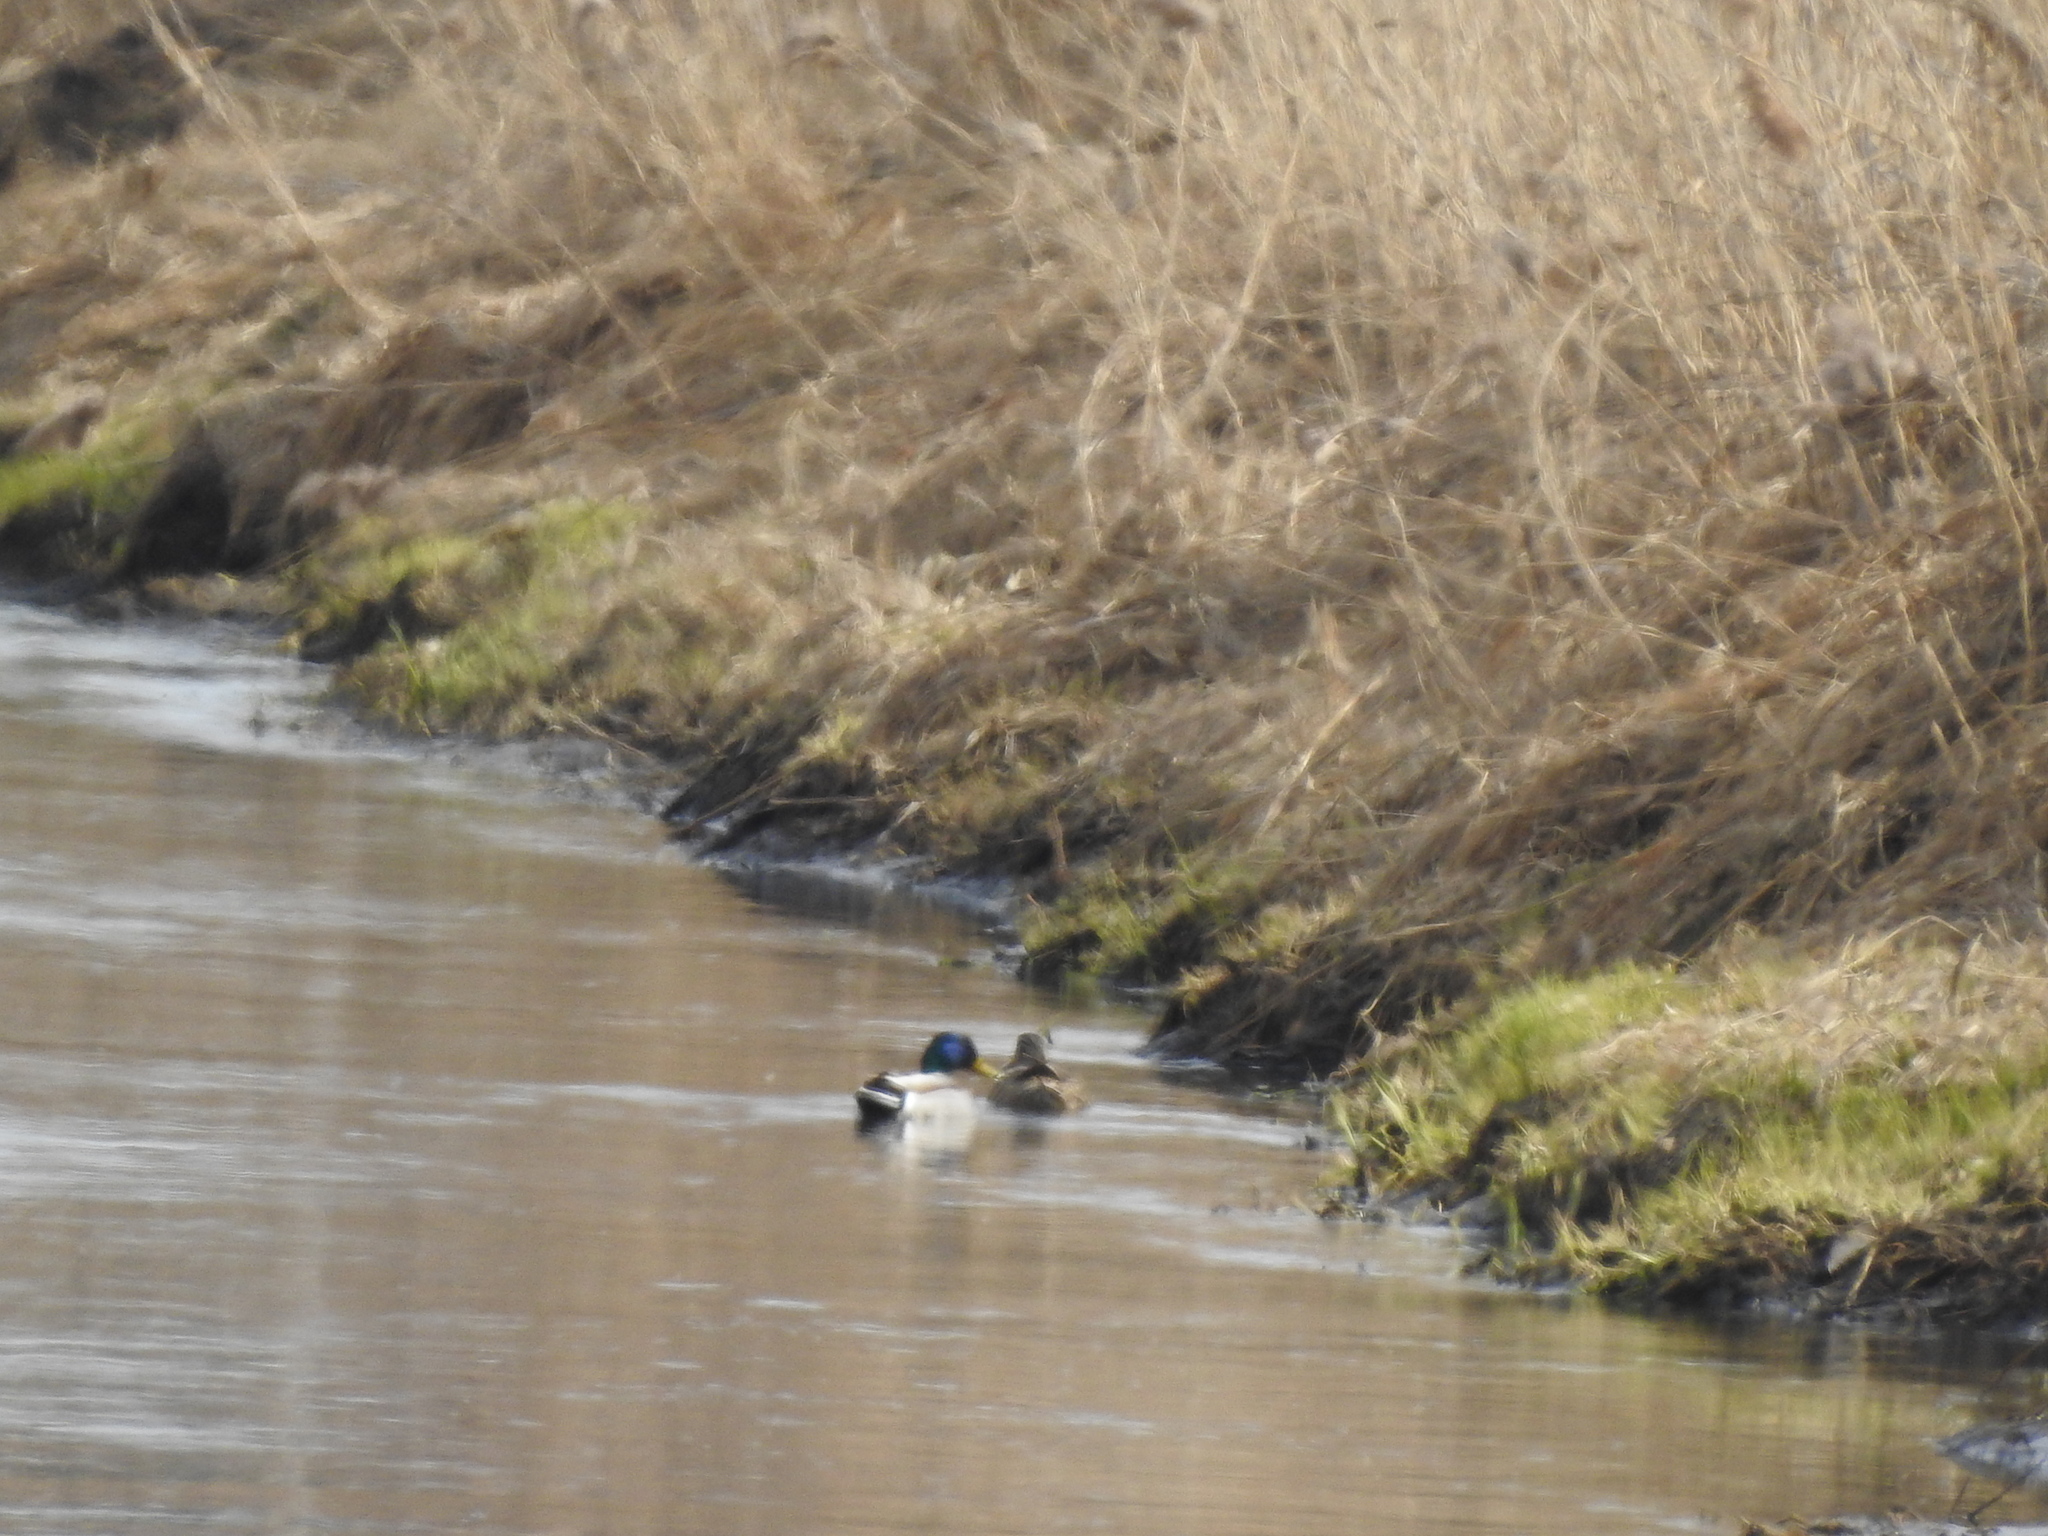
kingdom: Animalia
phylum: Chordata
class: Aves
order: Anseriformes
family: Anatidae
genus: Anas
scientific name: Anas platyrhynchos
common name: Mallard
